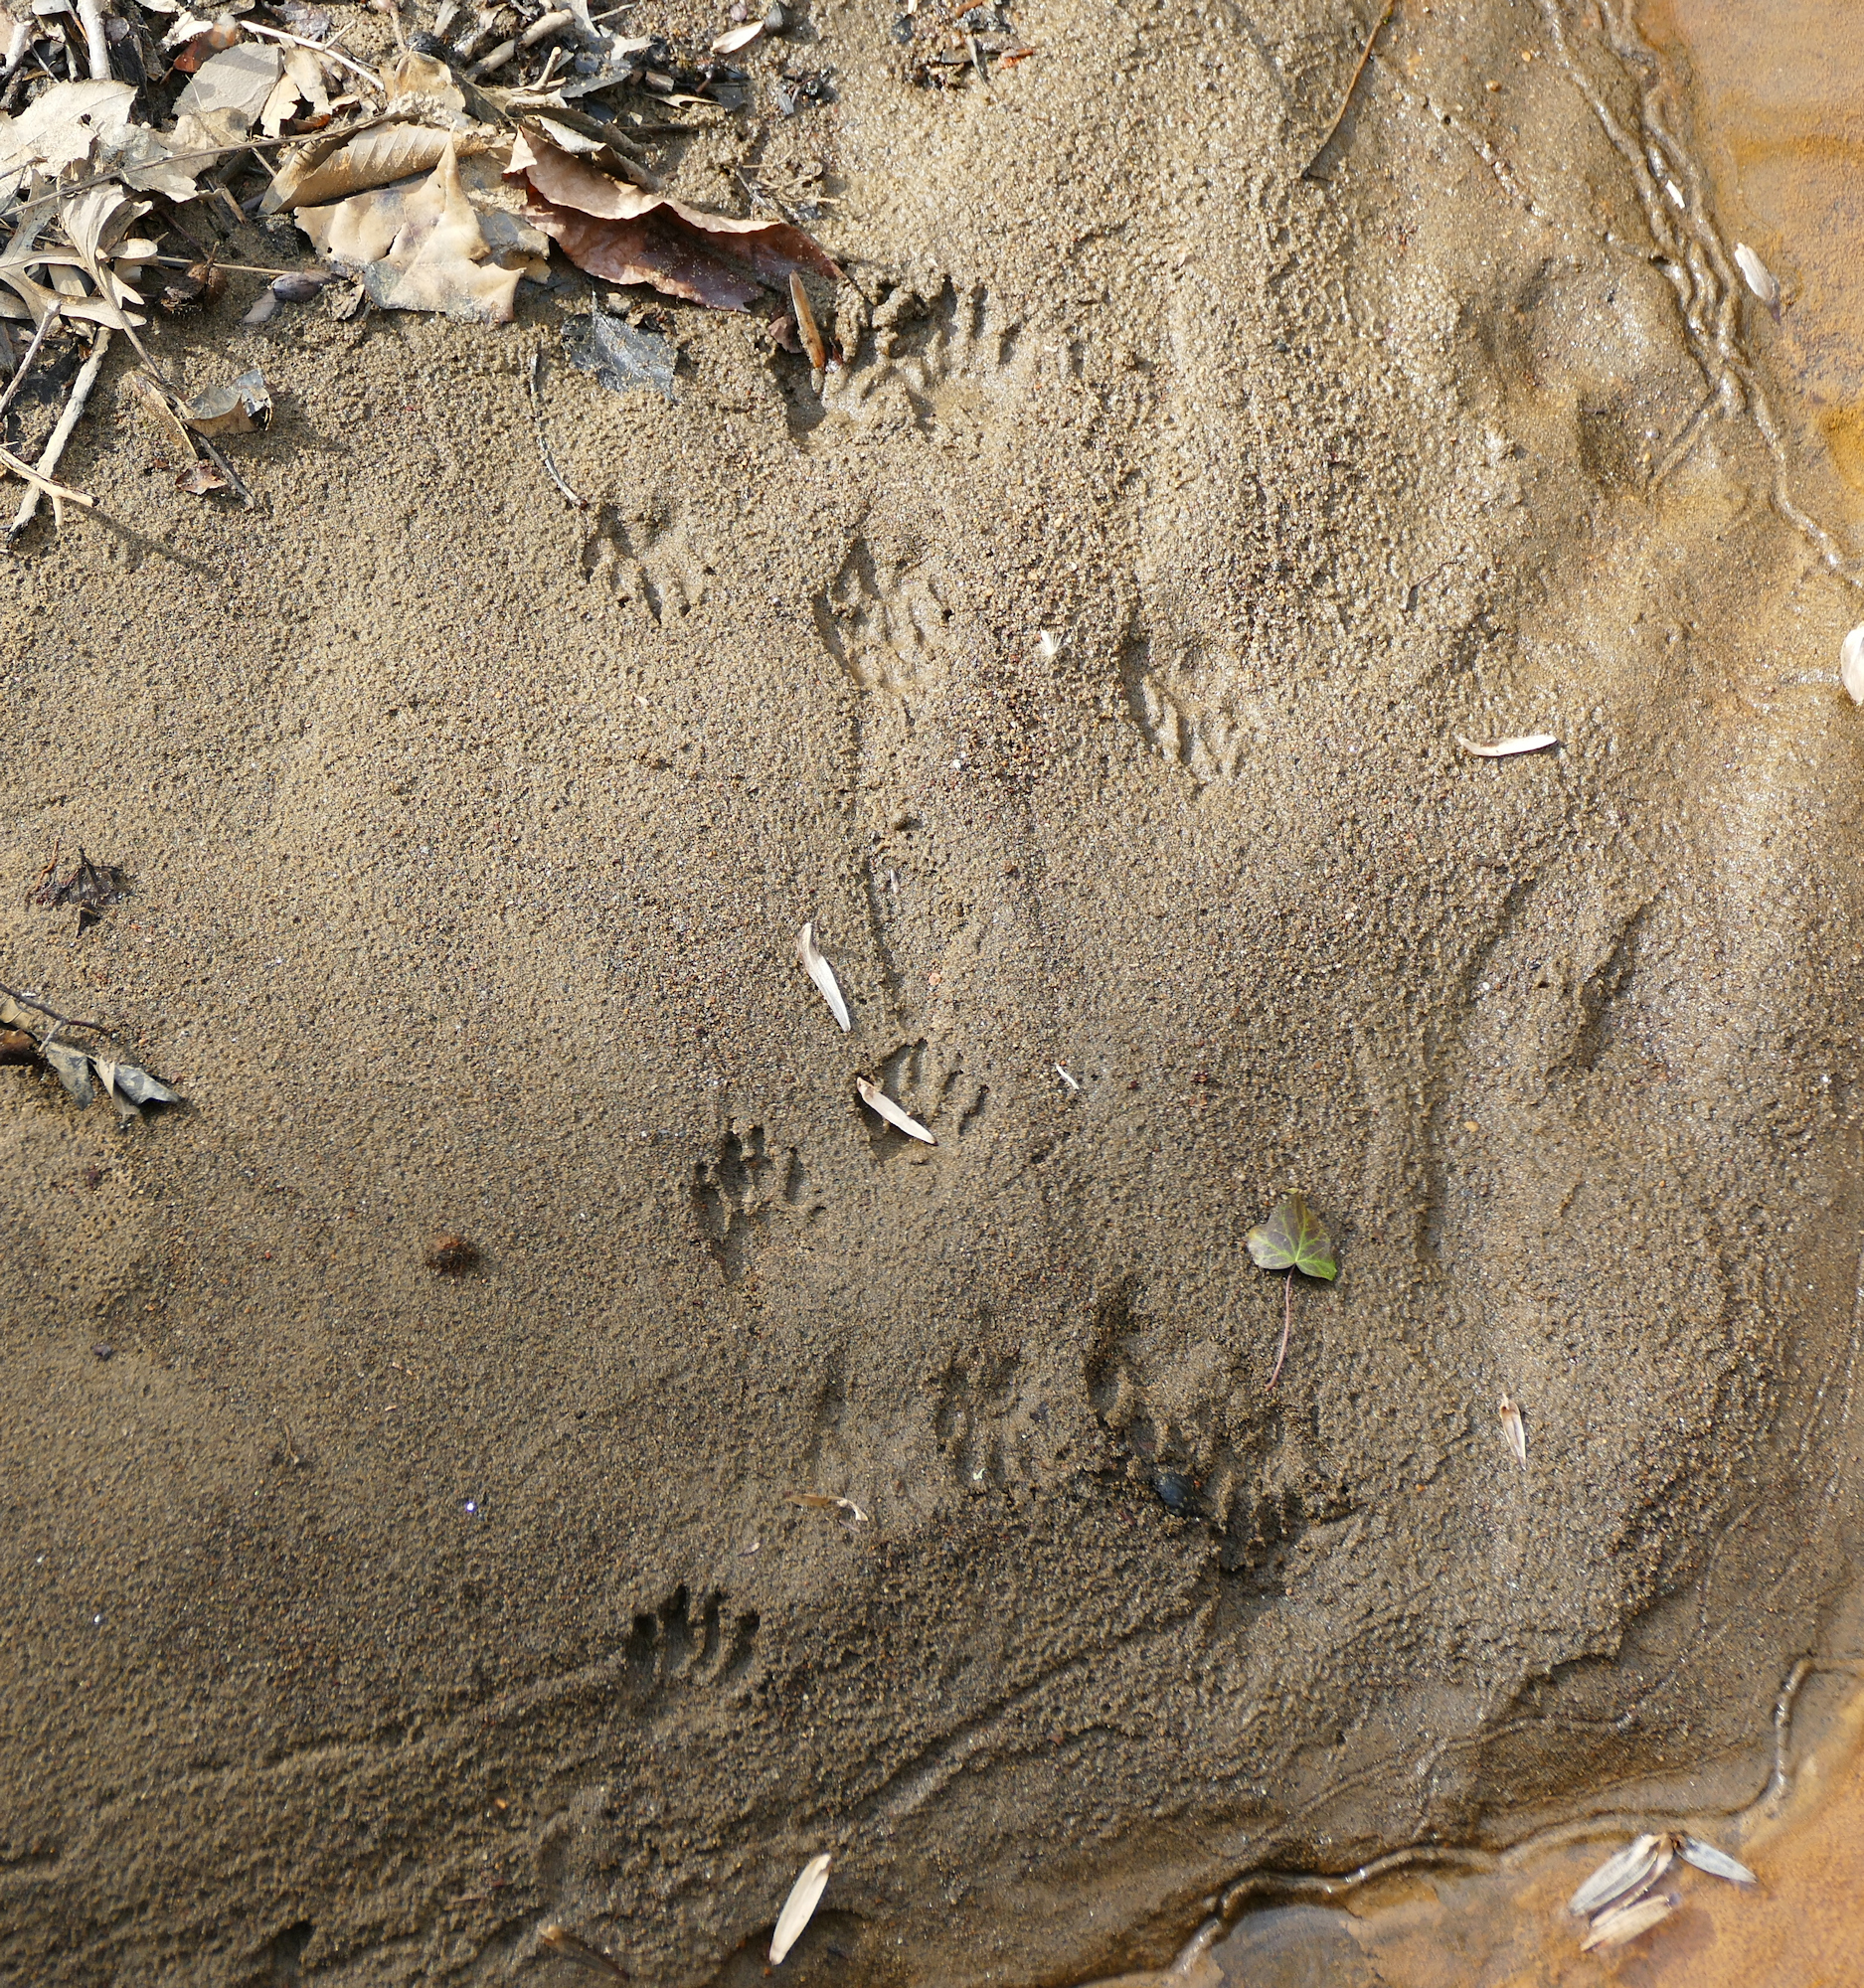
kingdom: Animalia
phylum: Chordata
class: Mammalia
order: Carnivora
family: Procyonidae
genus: Procyon
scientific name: Procyon lotor
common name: Raccoon
